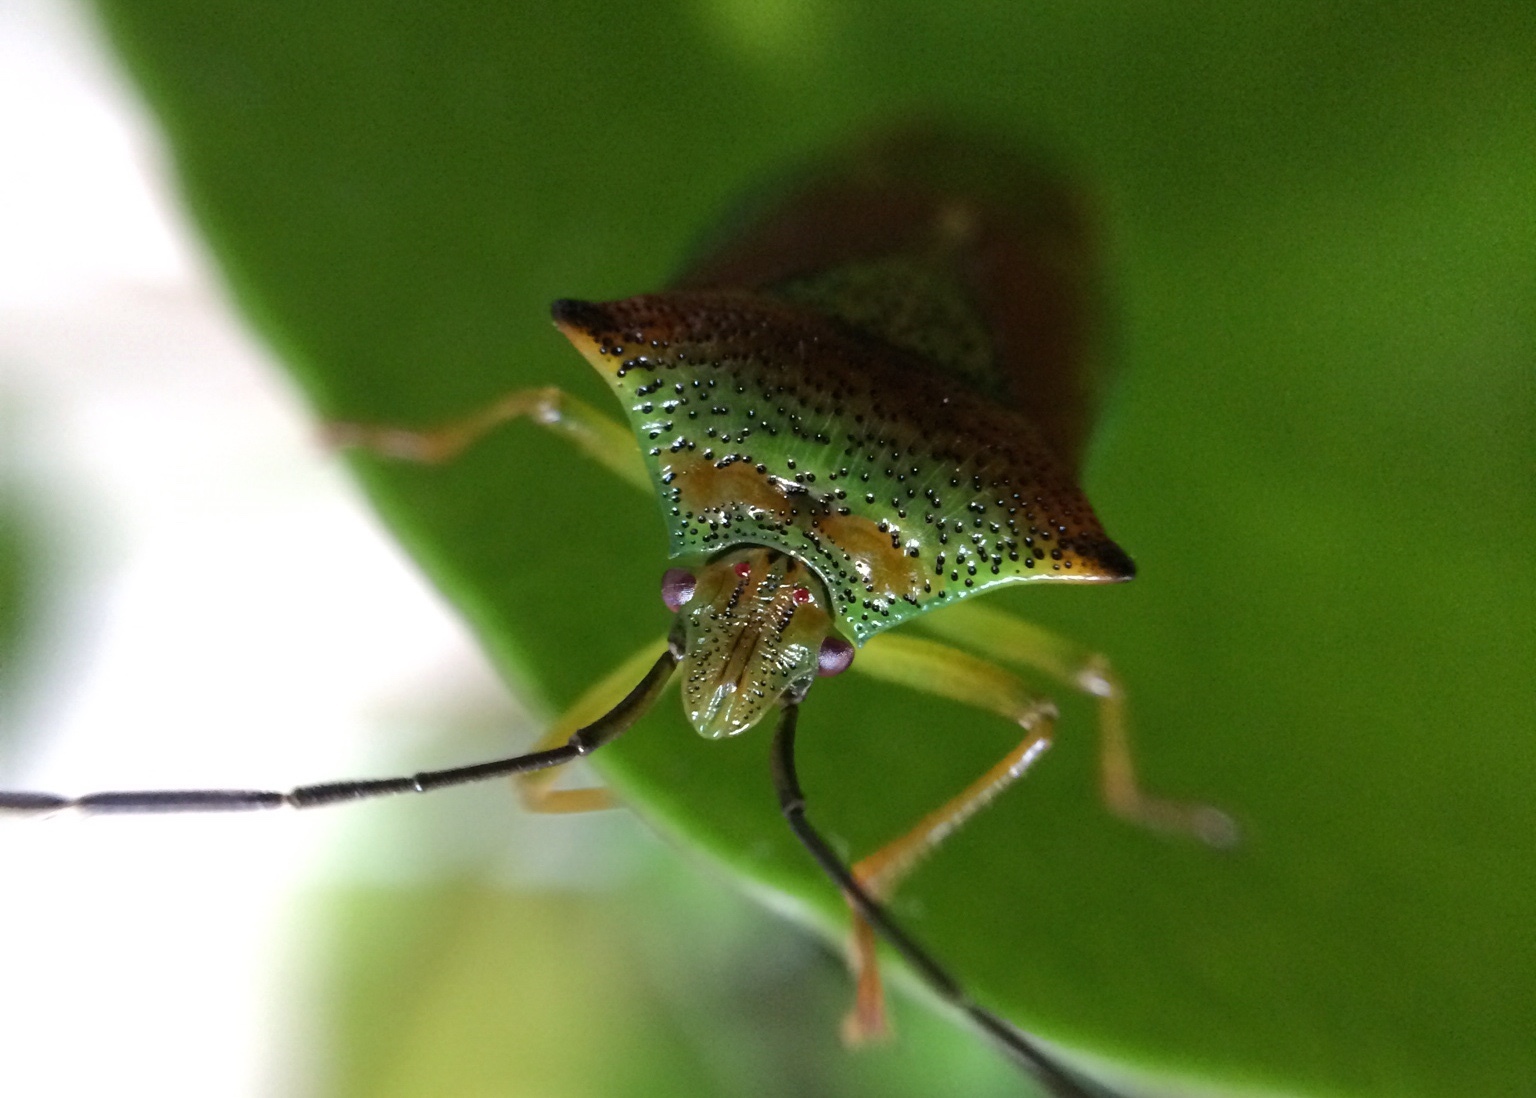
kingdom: Animalia
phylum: Arthropoda
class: Insecta
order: Hemiptera
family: Acanthosomatidae
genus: Acanthosoma
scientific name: Acanthosoma haemorrhoidale
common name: Hawthorn shieldbug
